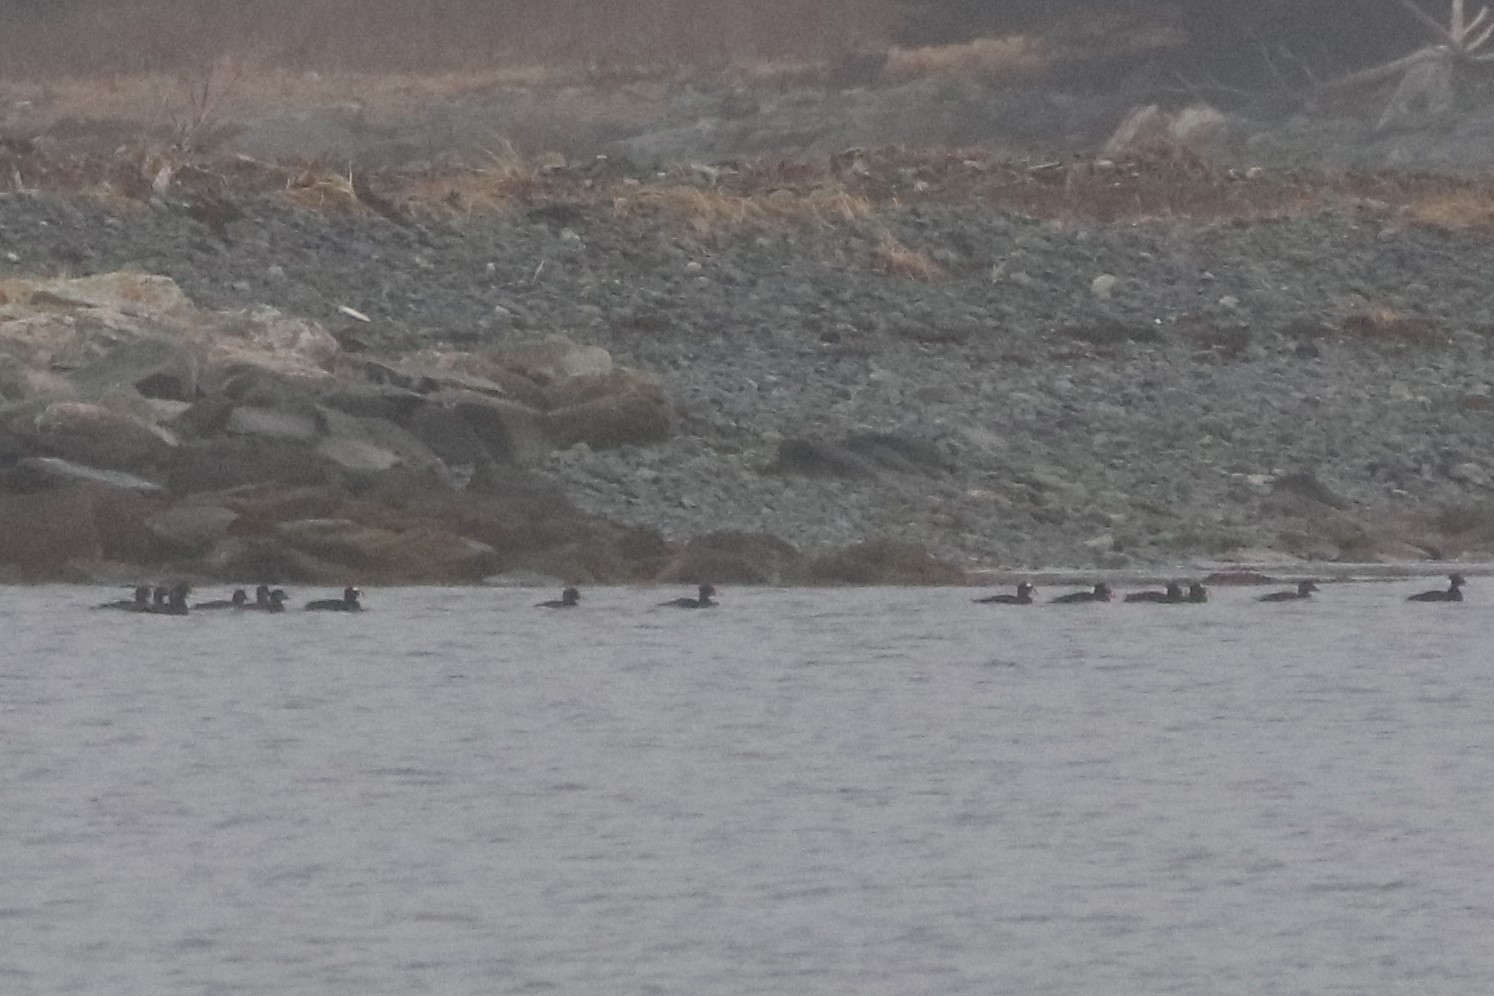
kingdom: Animalia
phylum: Chordata
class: Aves
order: Anseriformes
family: Anatidae
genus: Melanitta
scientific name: Melanitta perspicillata
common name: Surf scoter
